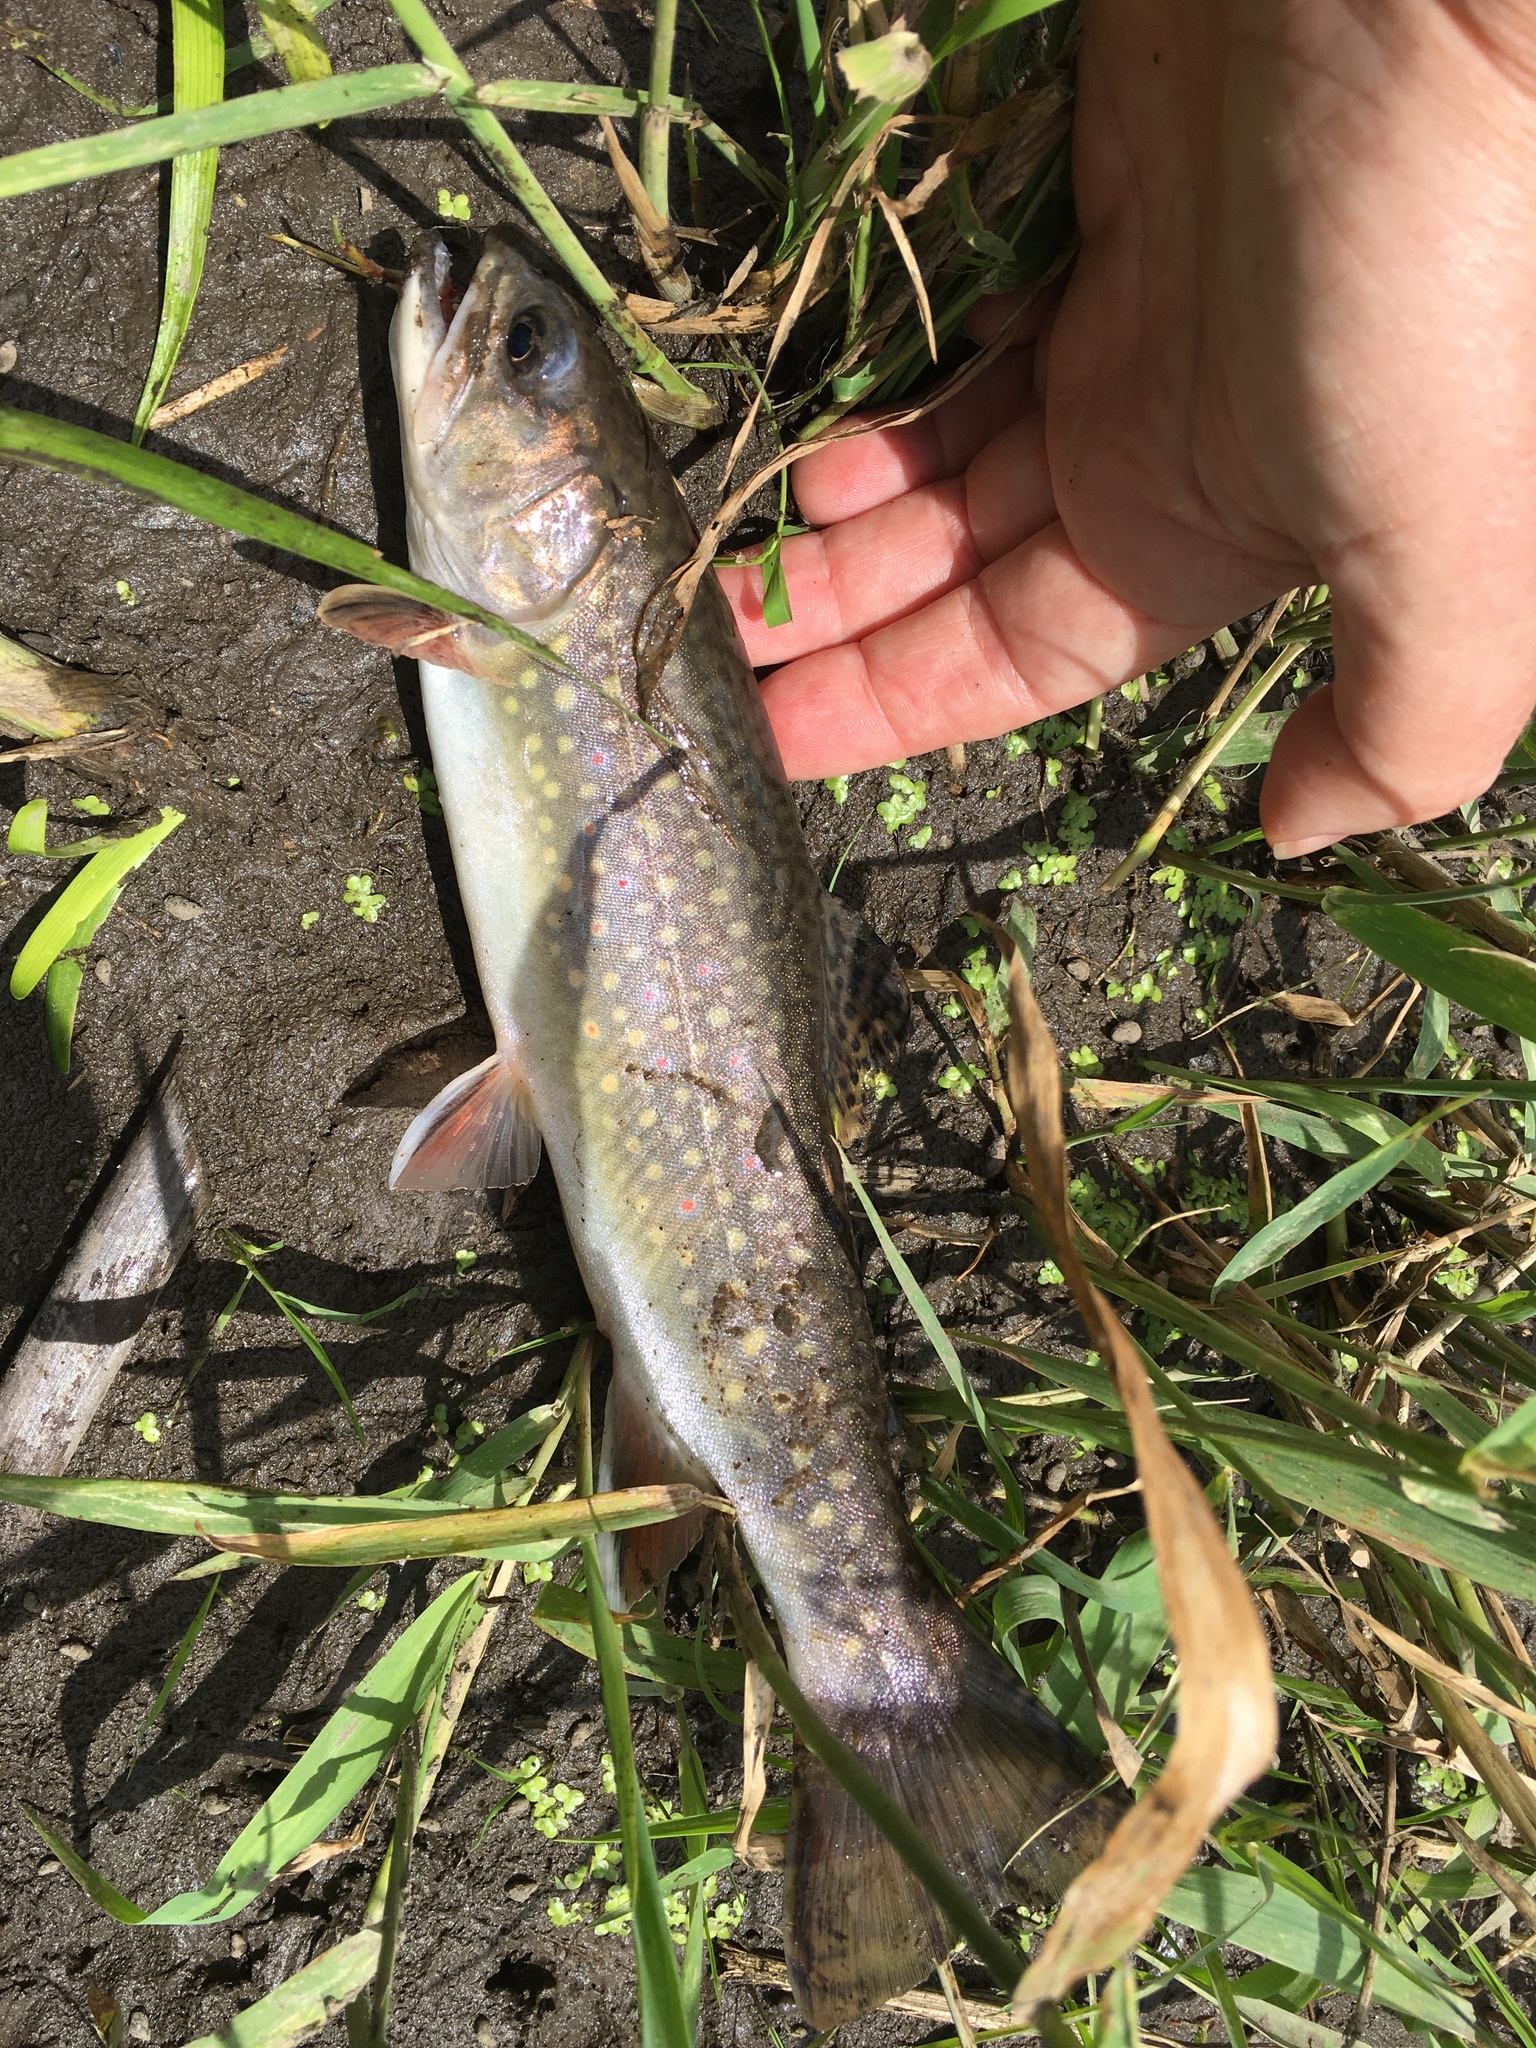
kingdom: Animalia
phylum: Chordata
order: Salmoniformes
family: Salmonidae
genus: Salvelinus
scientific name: Salvelinus fontinalis
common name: Brook trout
